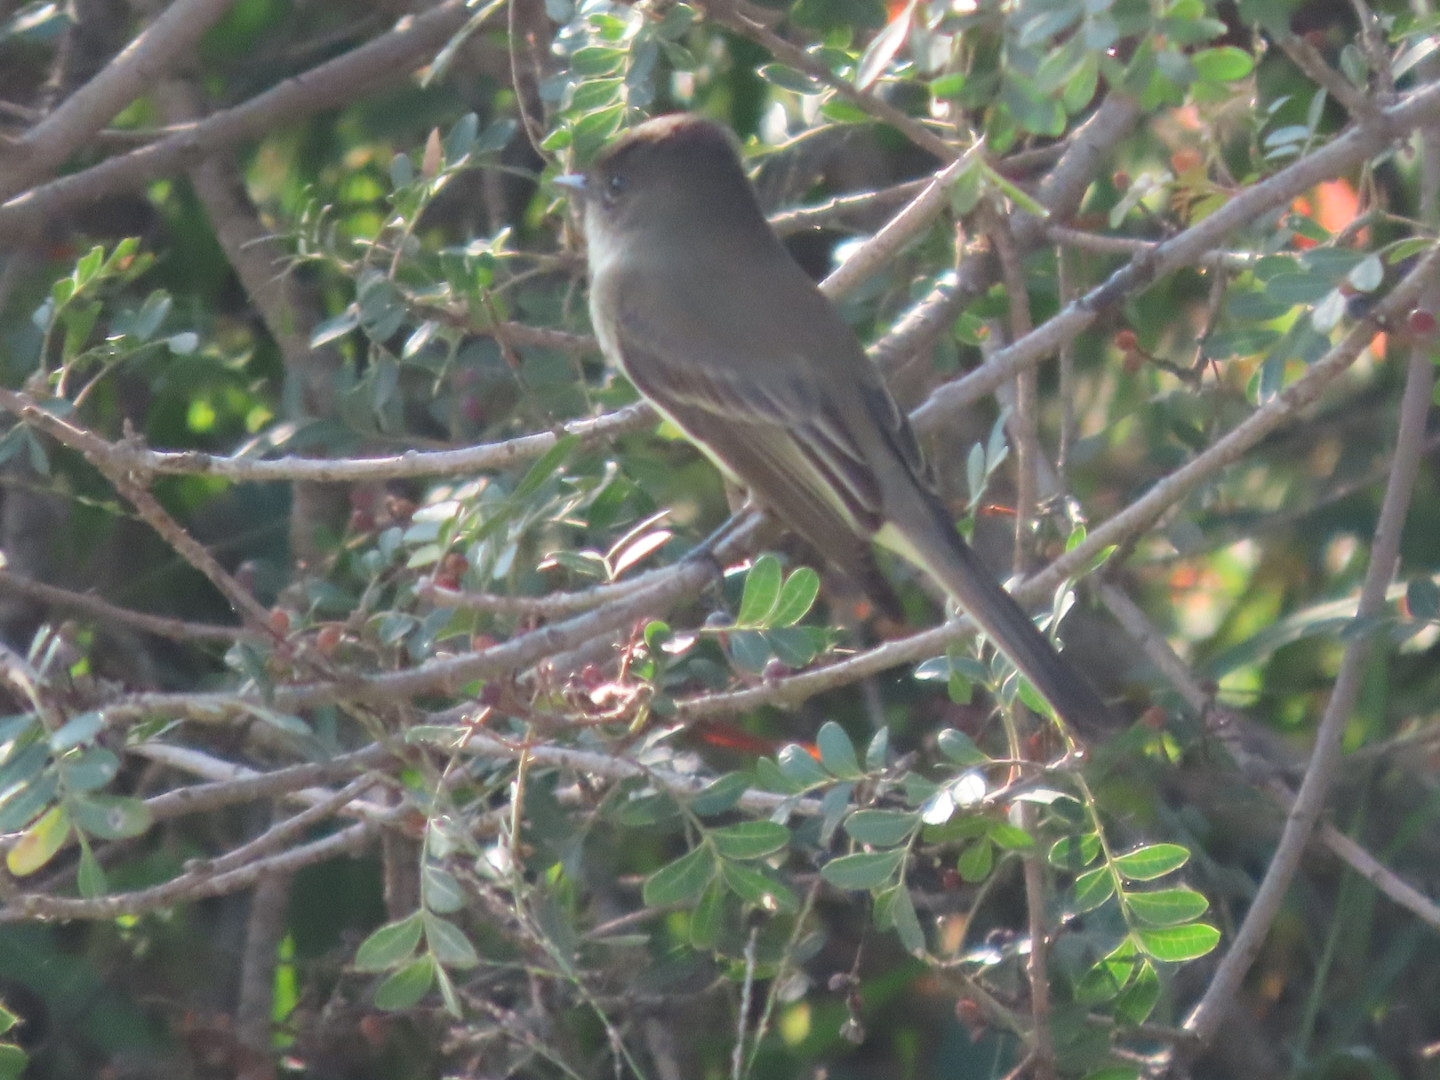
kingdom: Animalia
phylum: Chordata
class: Aves
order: Passeriformes
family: Tyrannidae
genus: Sayornis
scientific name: Sayornis phoebe
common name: Eastern phoebe
